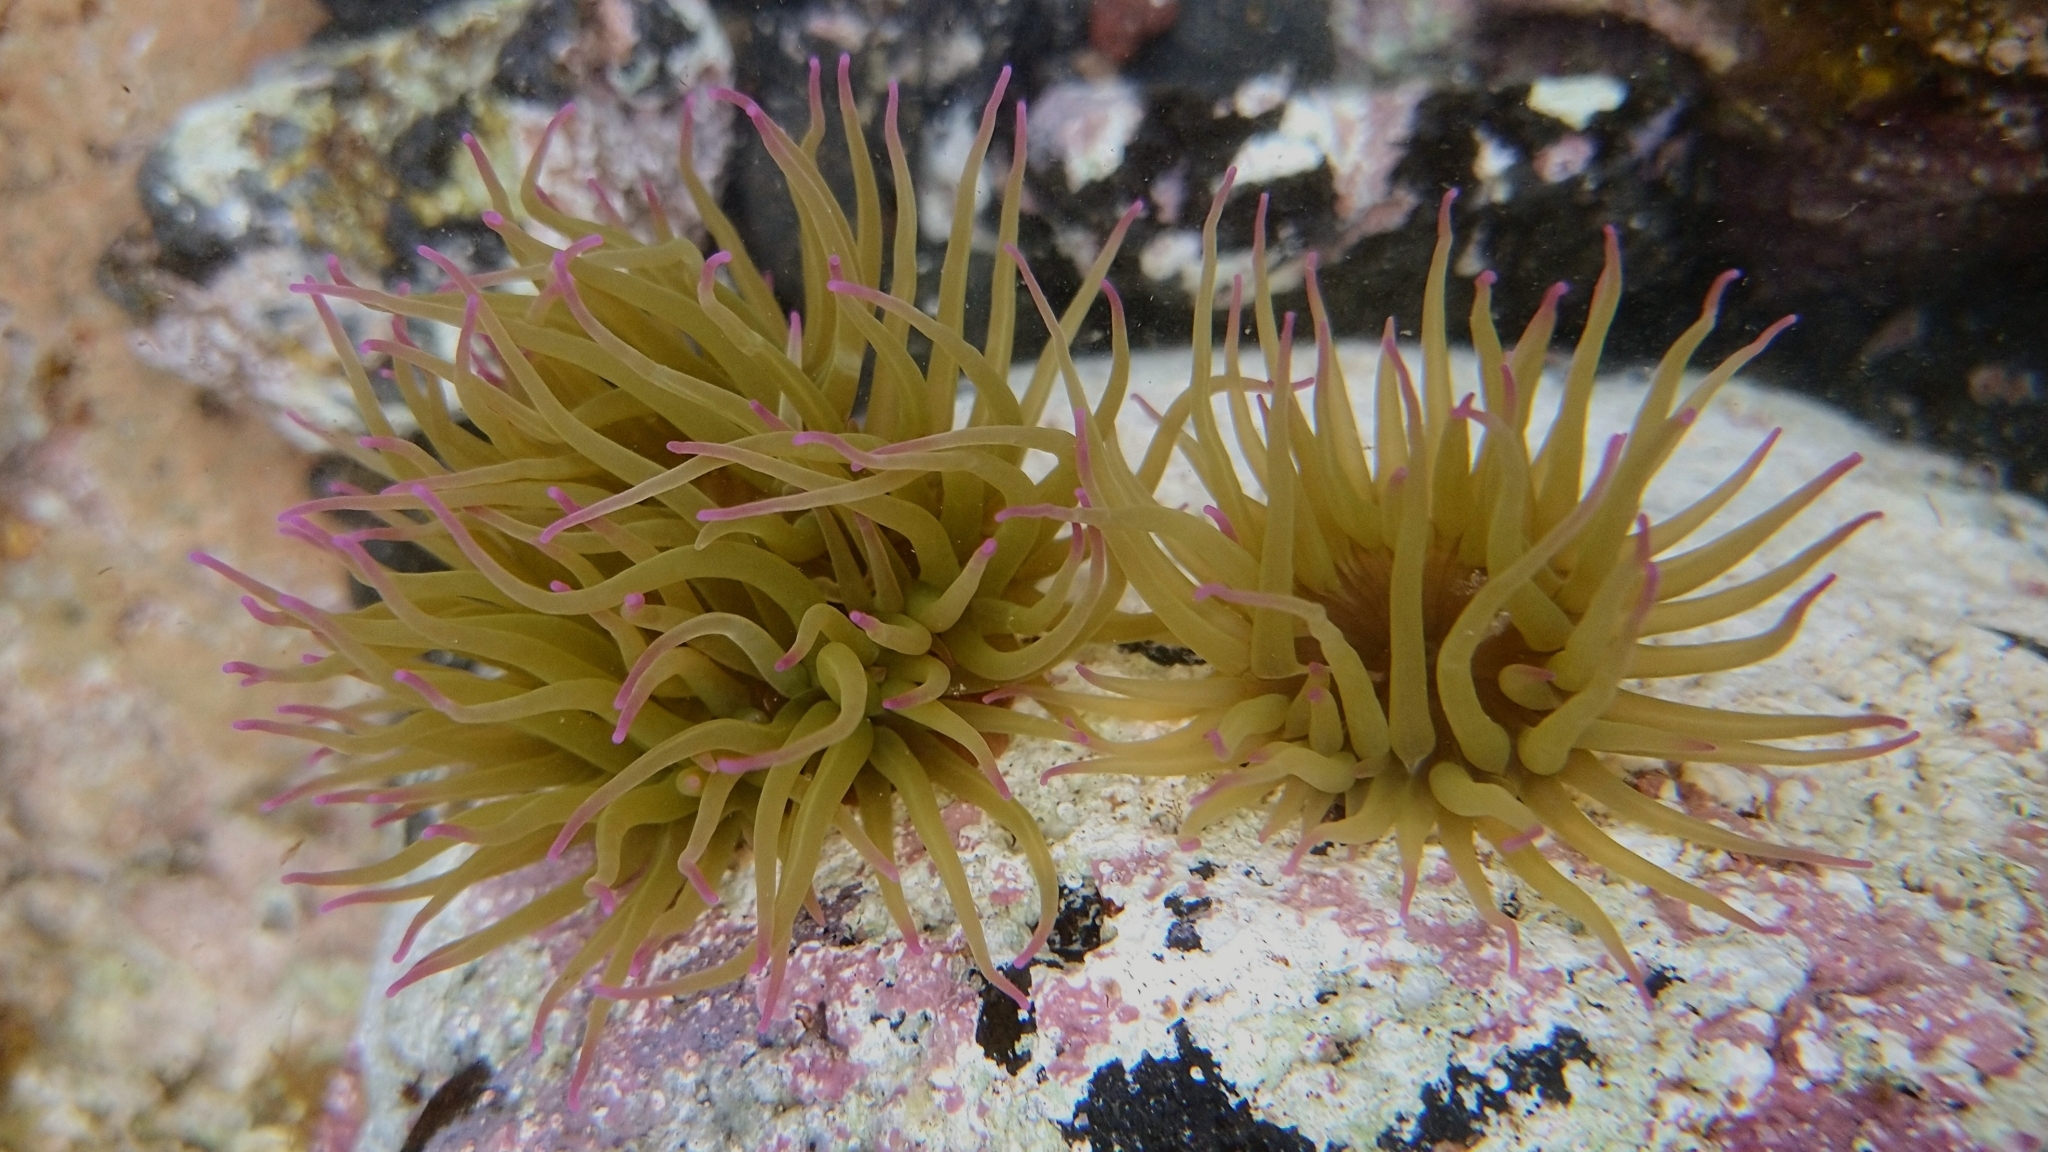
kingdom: Animalia
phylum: Cnidaria
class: Anthozoa
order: Actiniaria
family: Actiniidae
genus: Anemonia
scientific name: Anemonia viridis
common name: Snakelocks anemone
